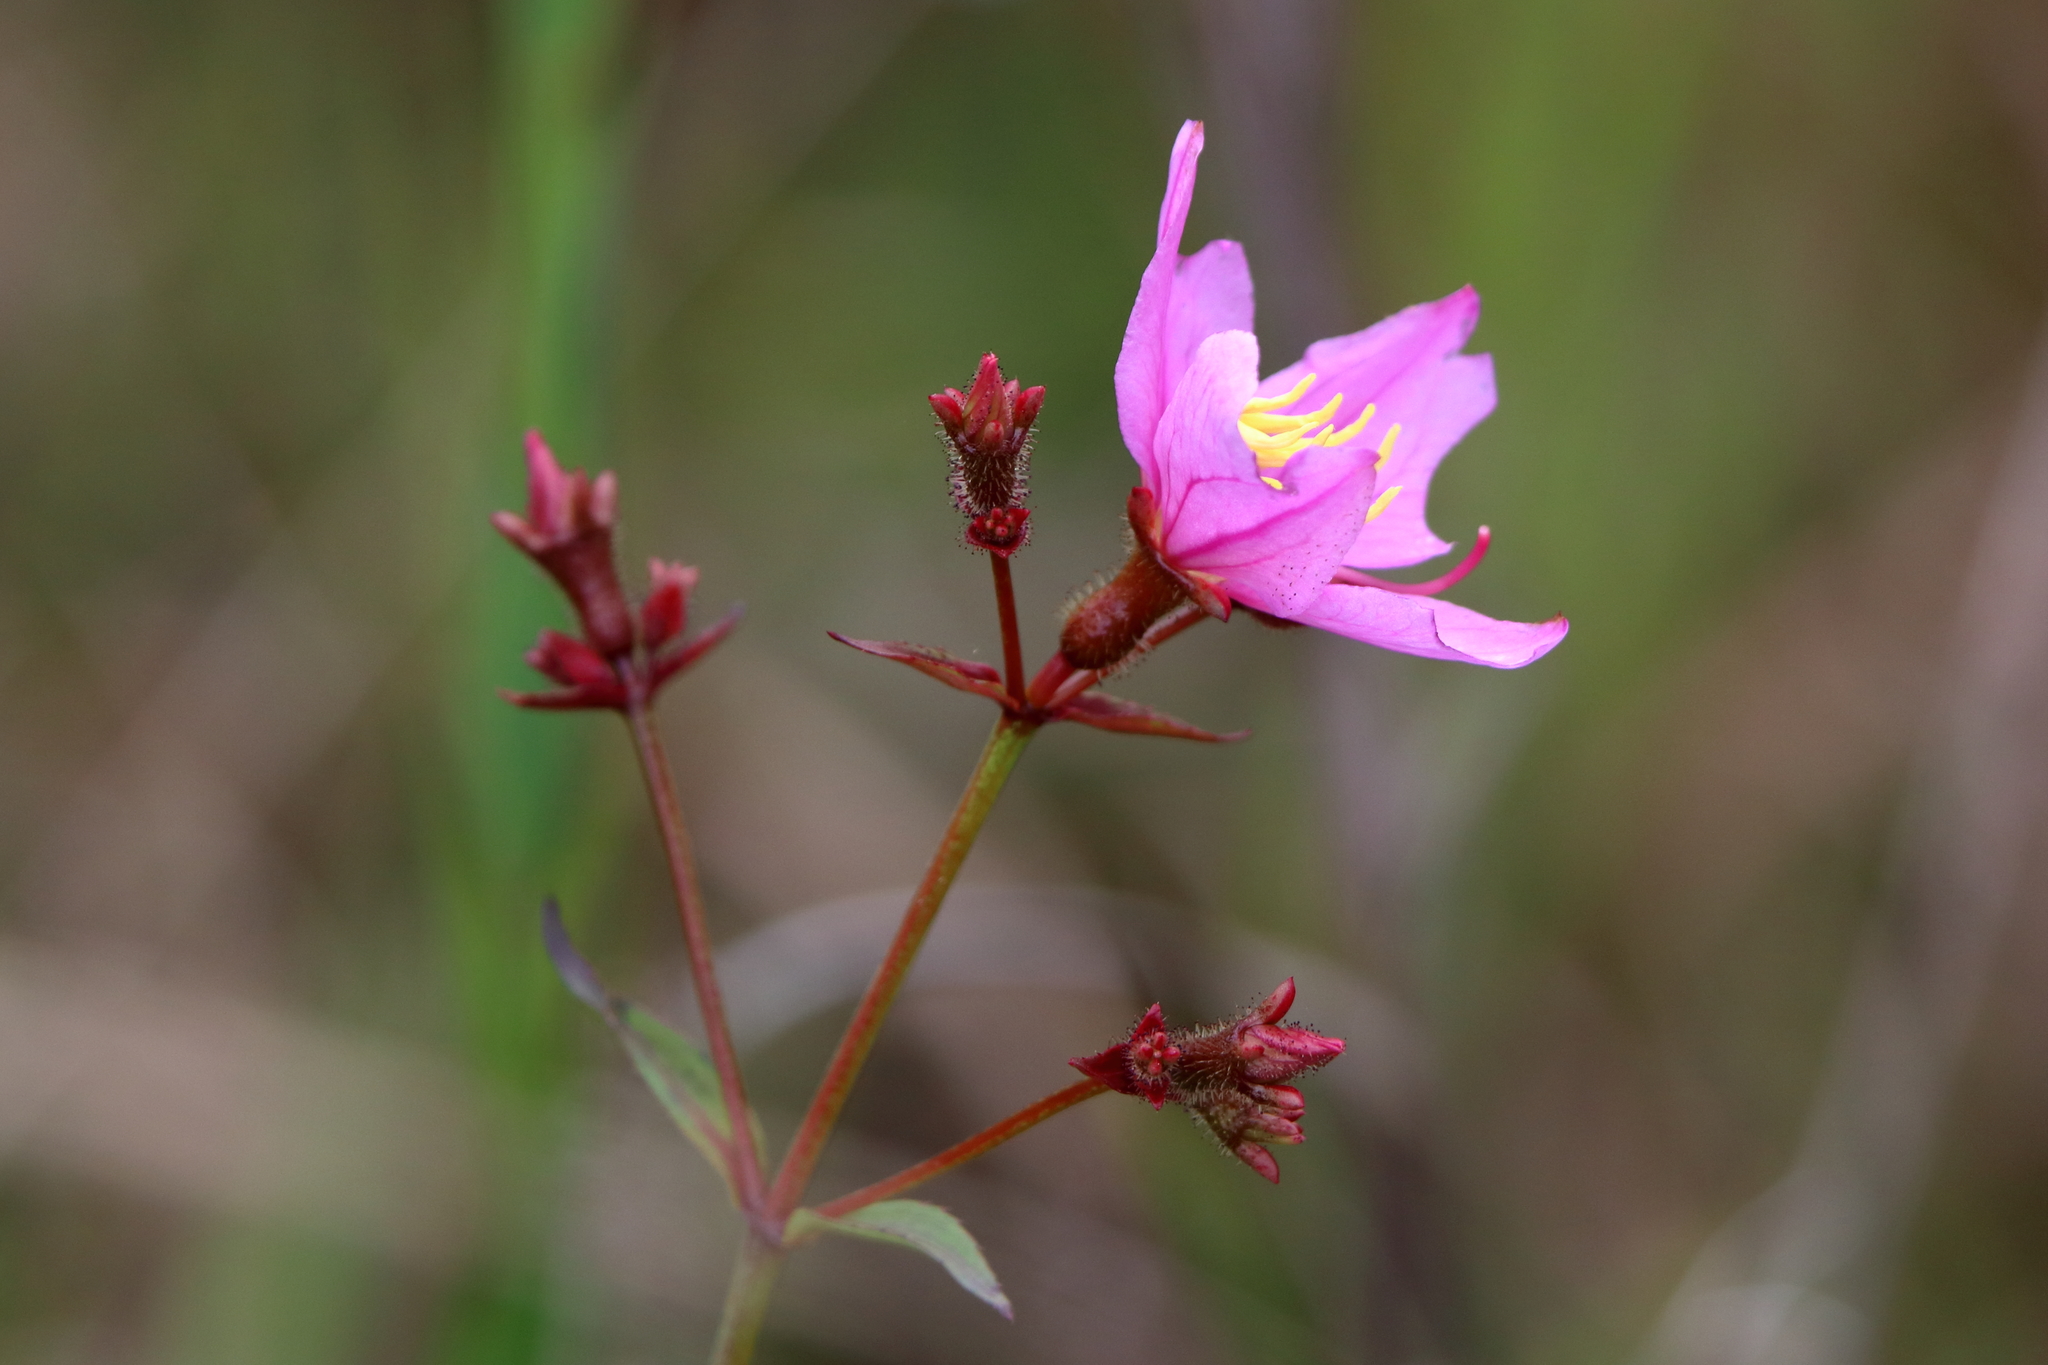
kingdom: Plantae
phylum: Tracheophyta
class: Magnoliopsida
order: Myrtales
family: Melastomataceae
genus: Rhexia
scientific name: Rhexia alifanus
